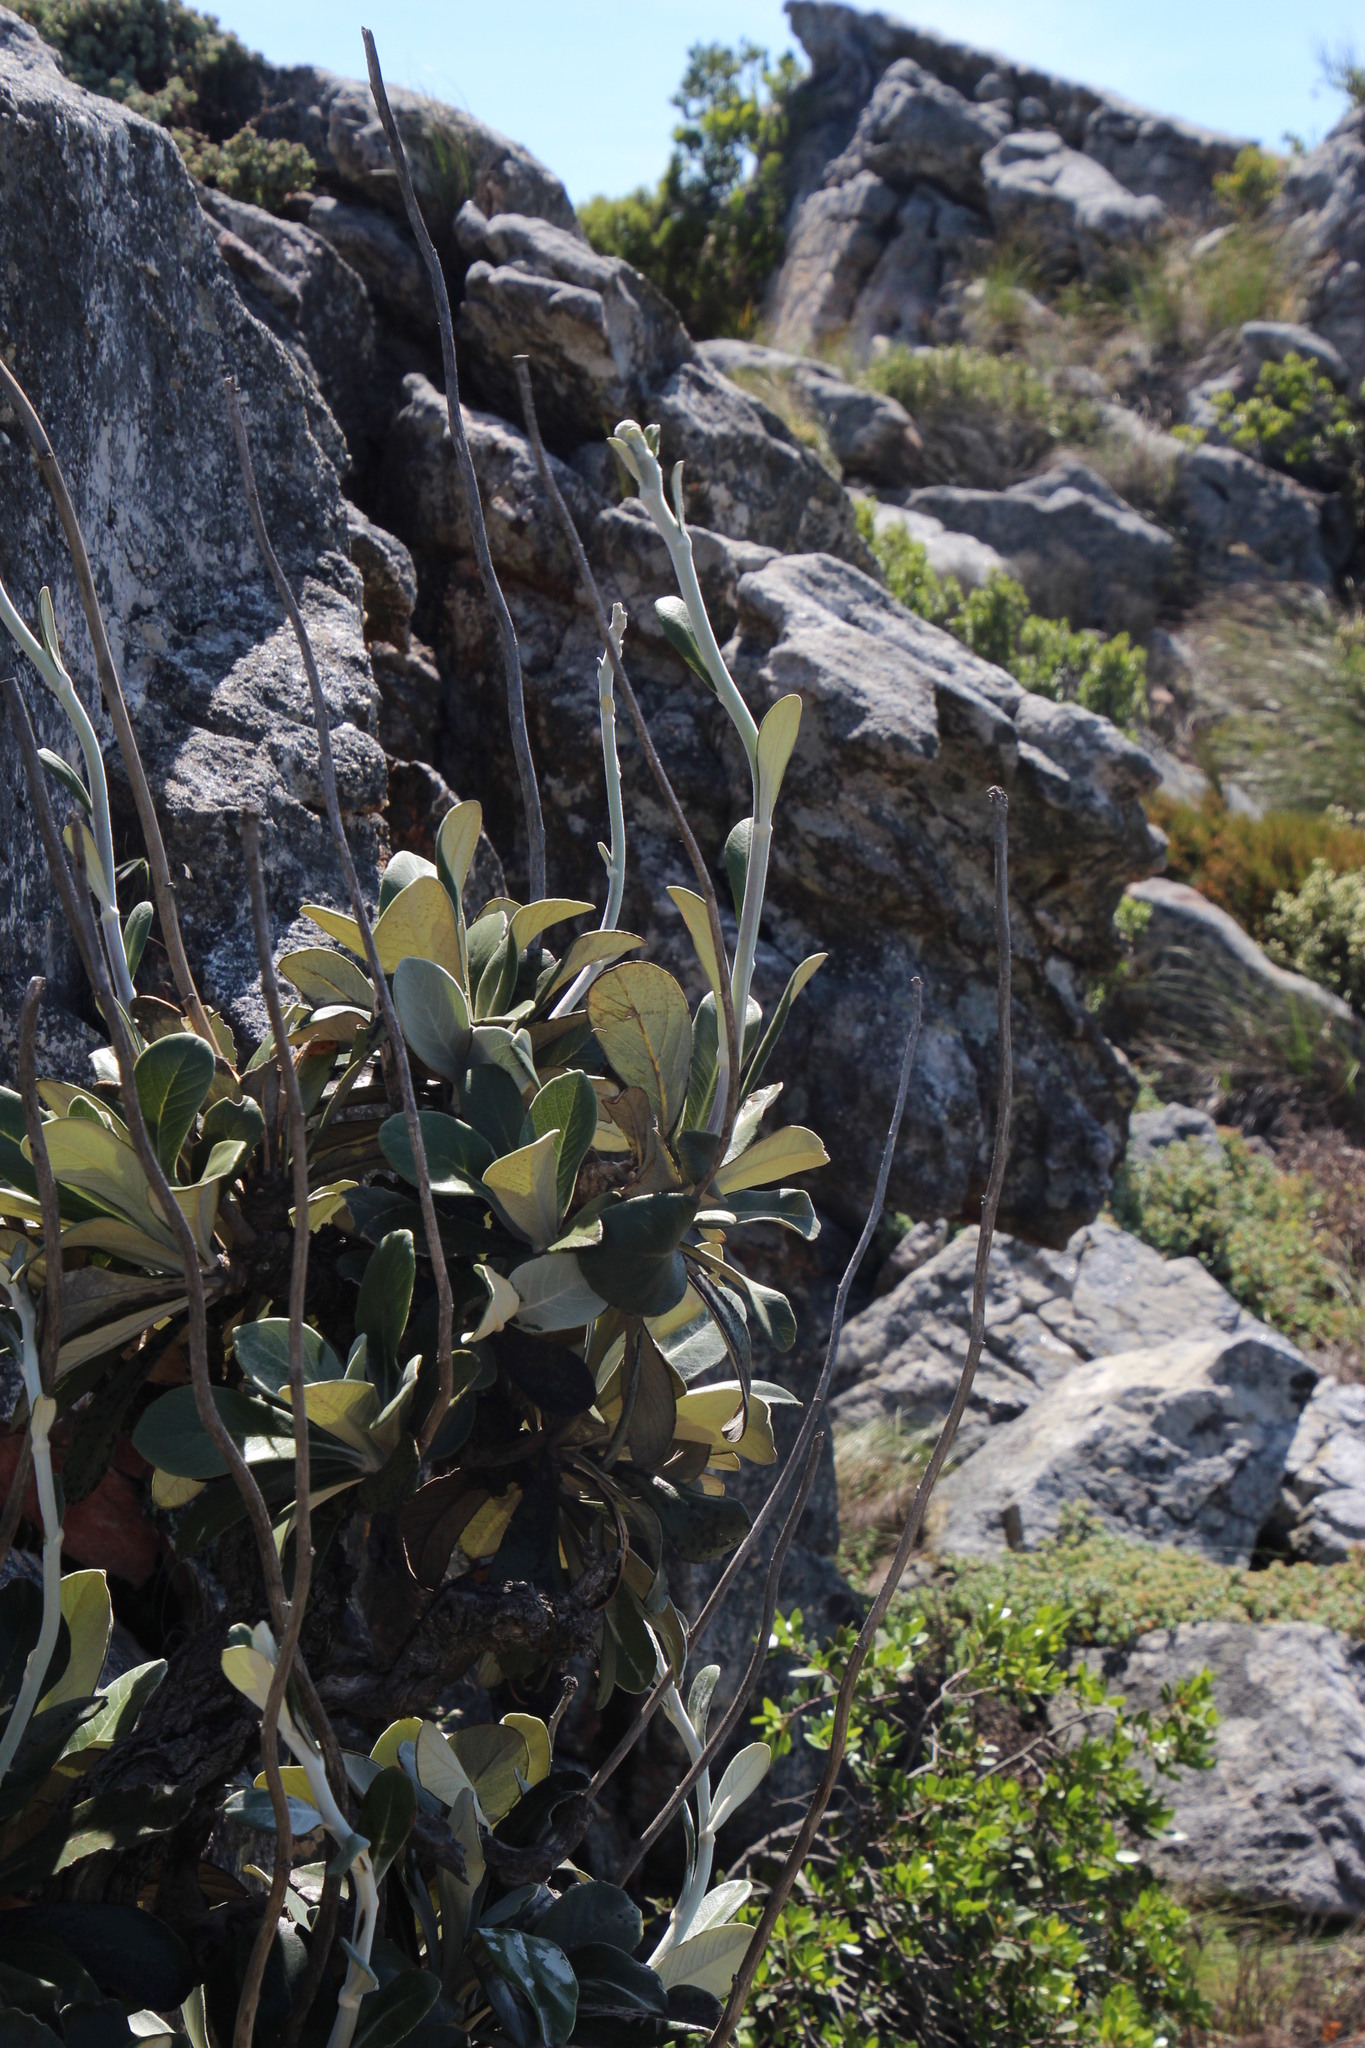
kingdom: Plantae
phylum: Tracheophyta
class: Magnoliopsida
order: Asterales
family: Asteraceae
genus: Oldenburgia
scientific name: Oldenburgia papionum
